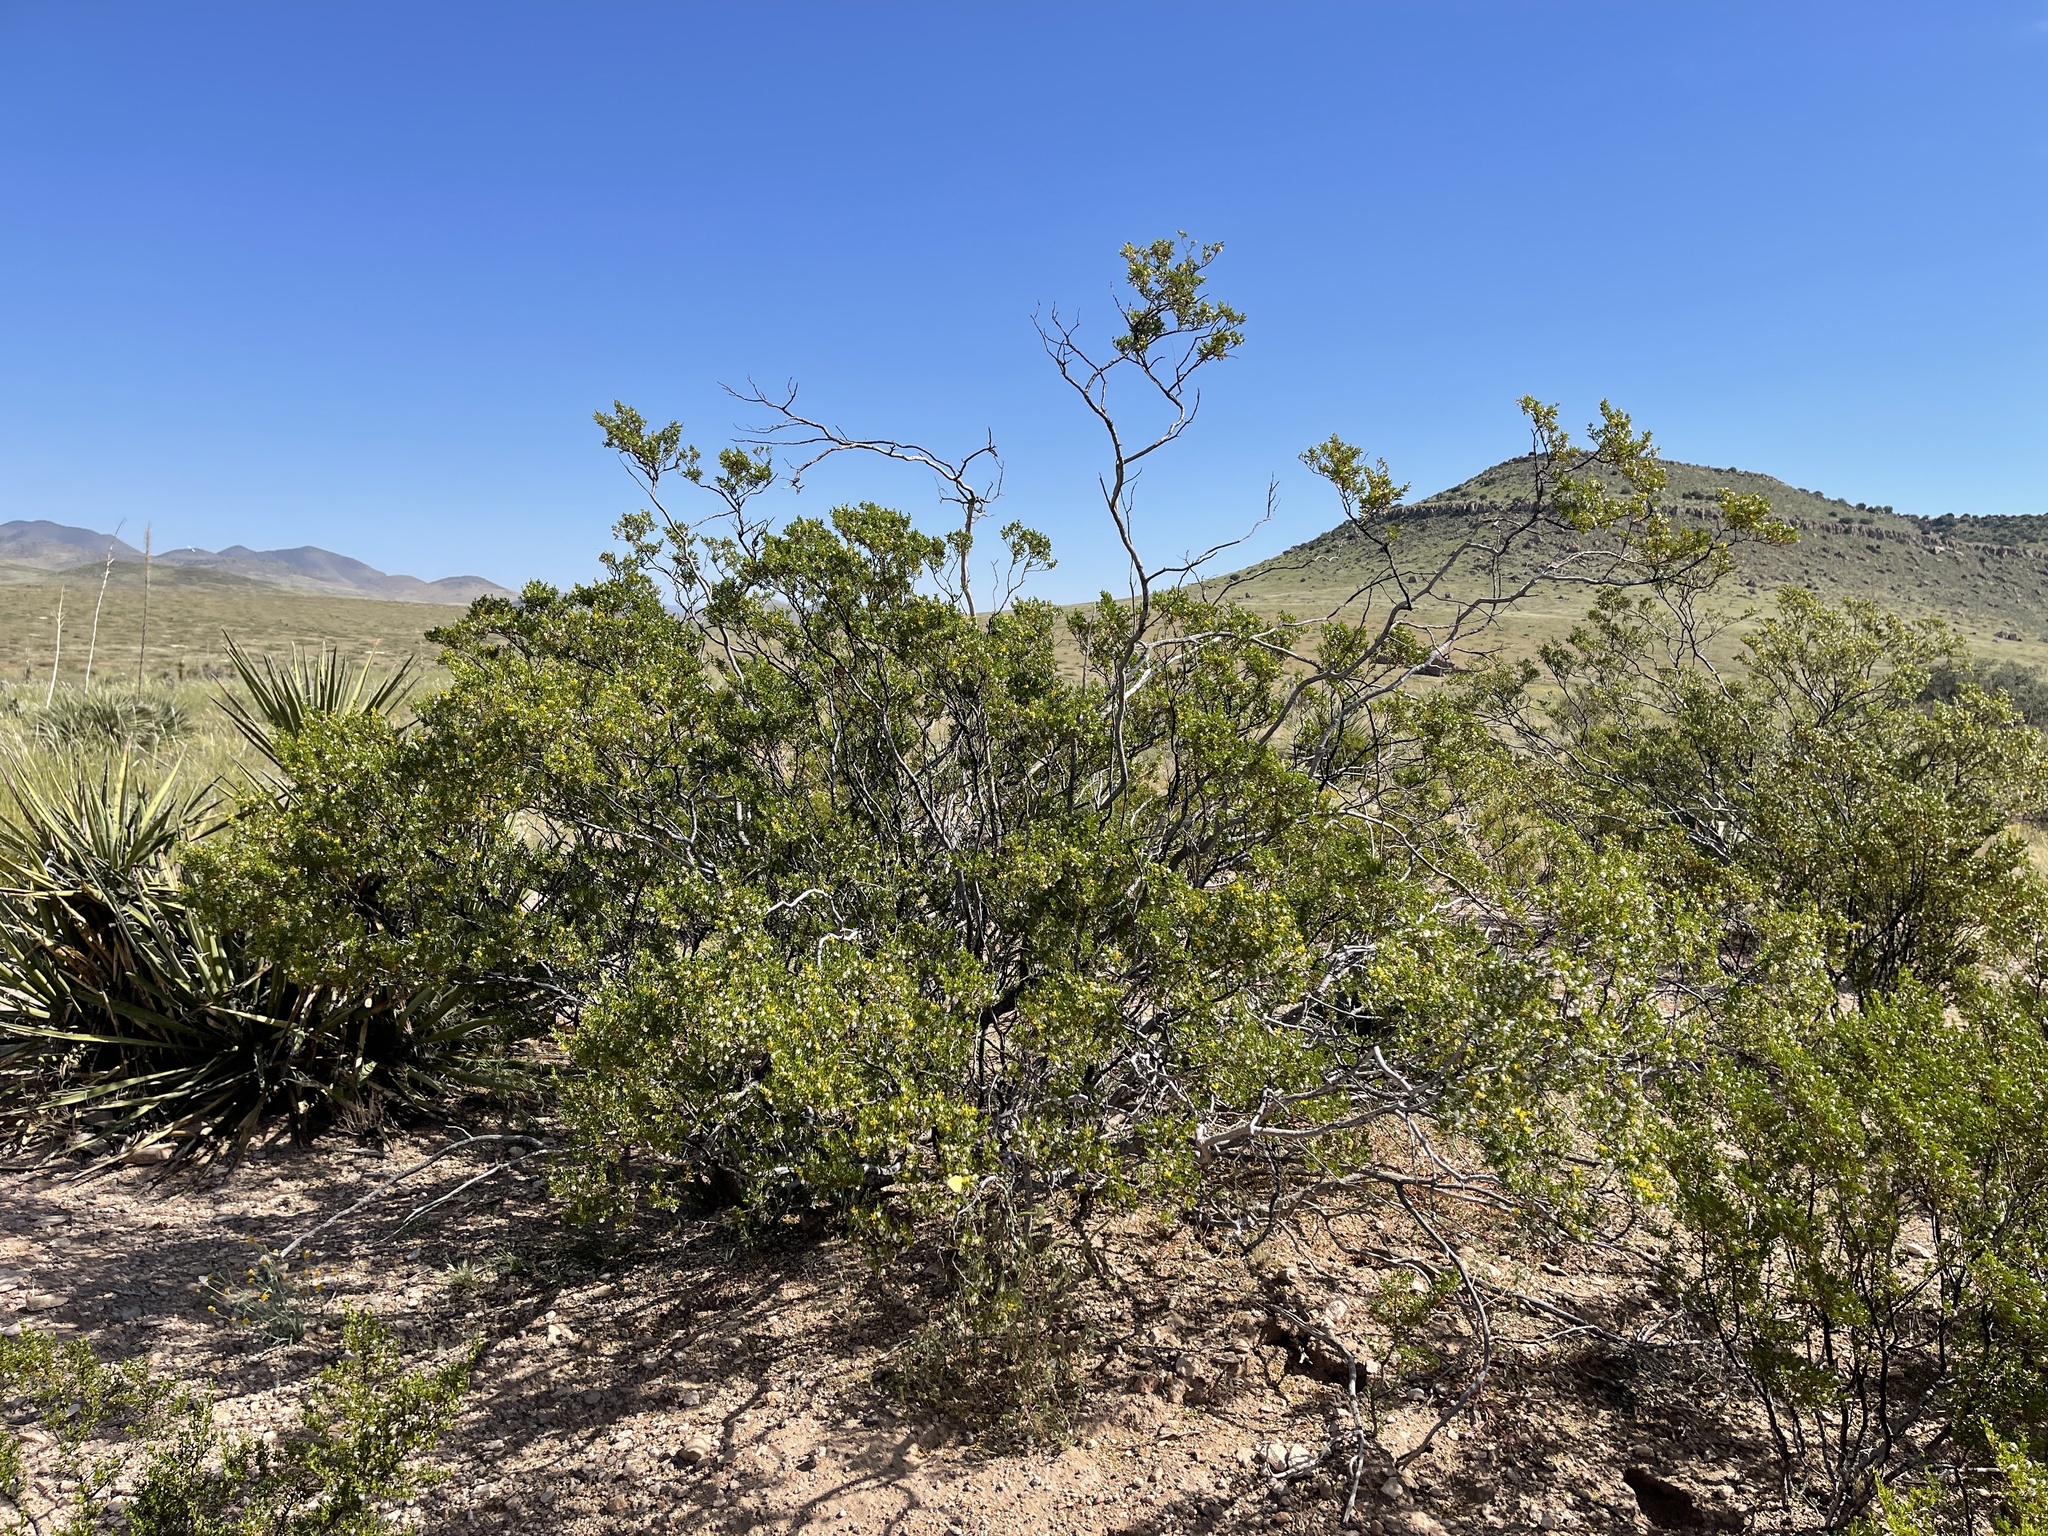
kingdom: Plantae
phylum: Tracheophyta
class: Magnoliopsida
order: Zygophyllales
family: Zygophyllaceae
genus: Larrea
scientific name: Larrea tridentata
